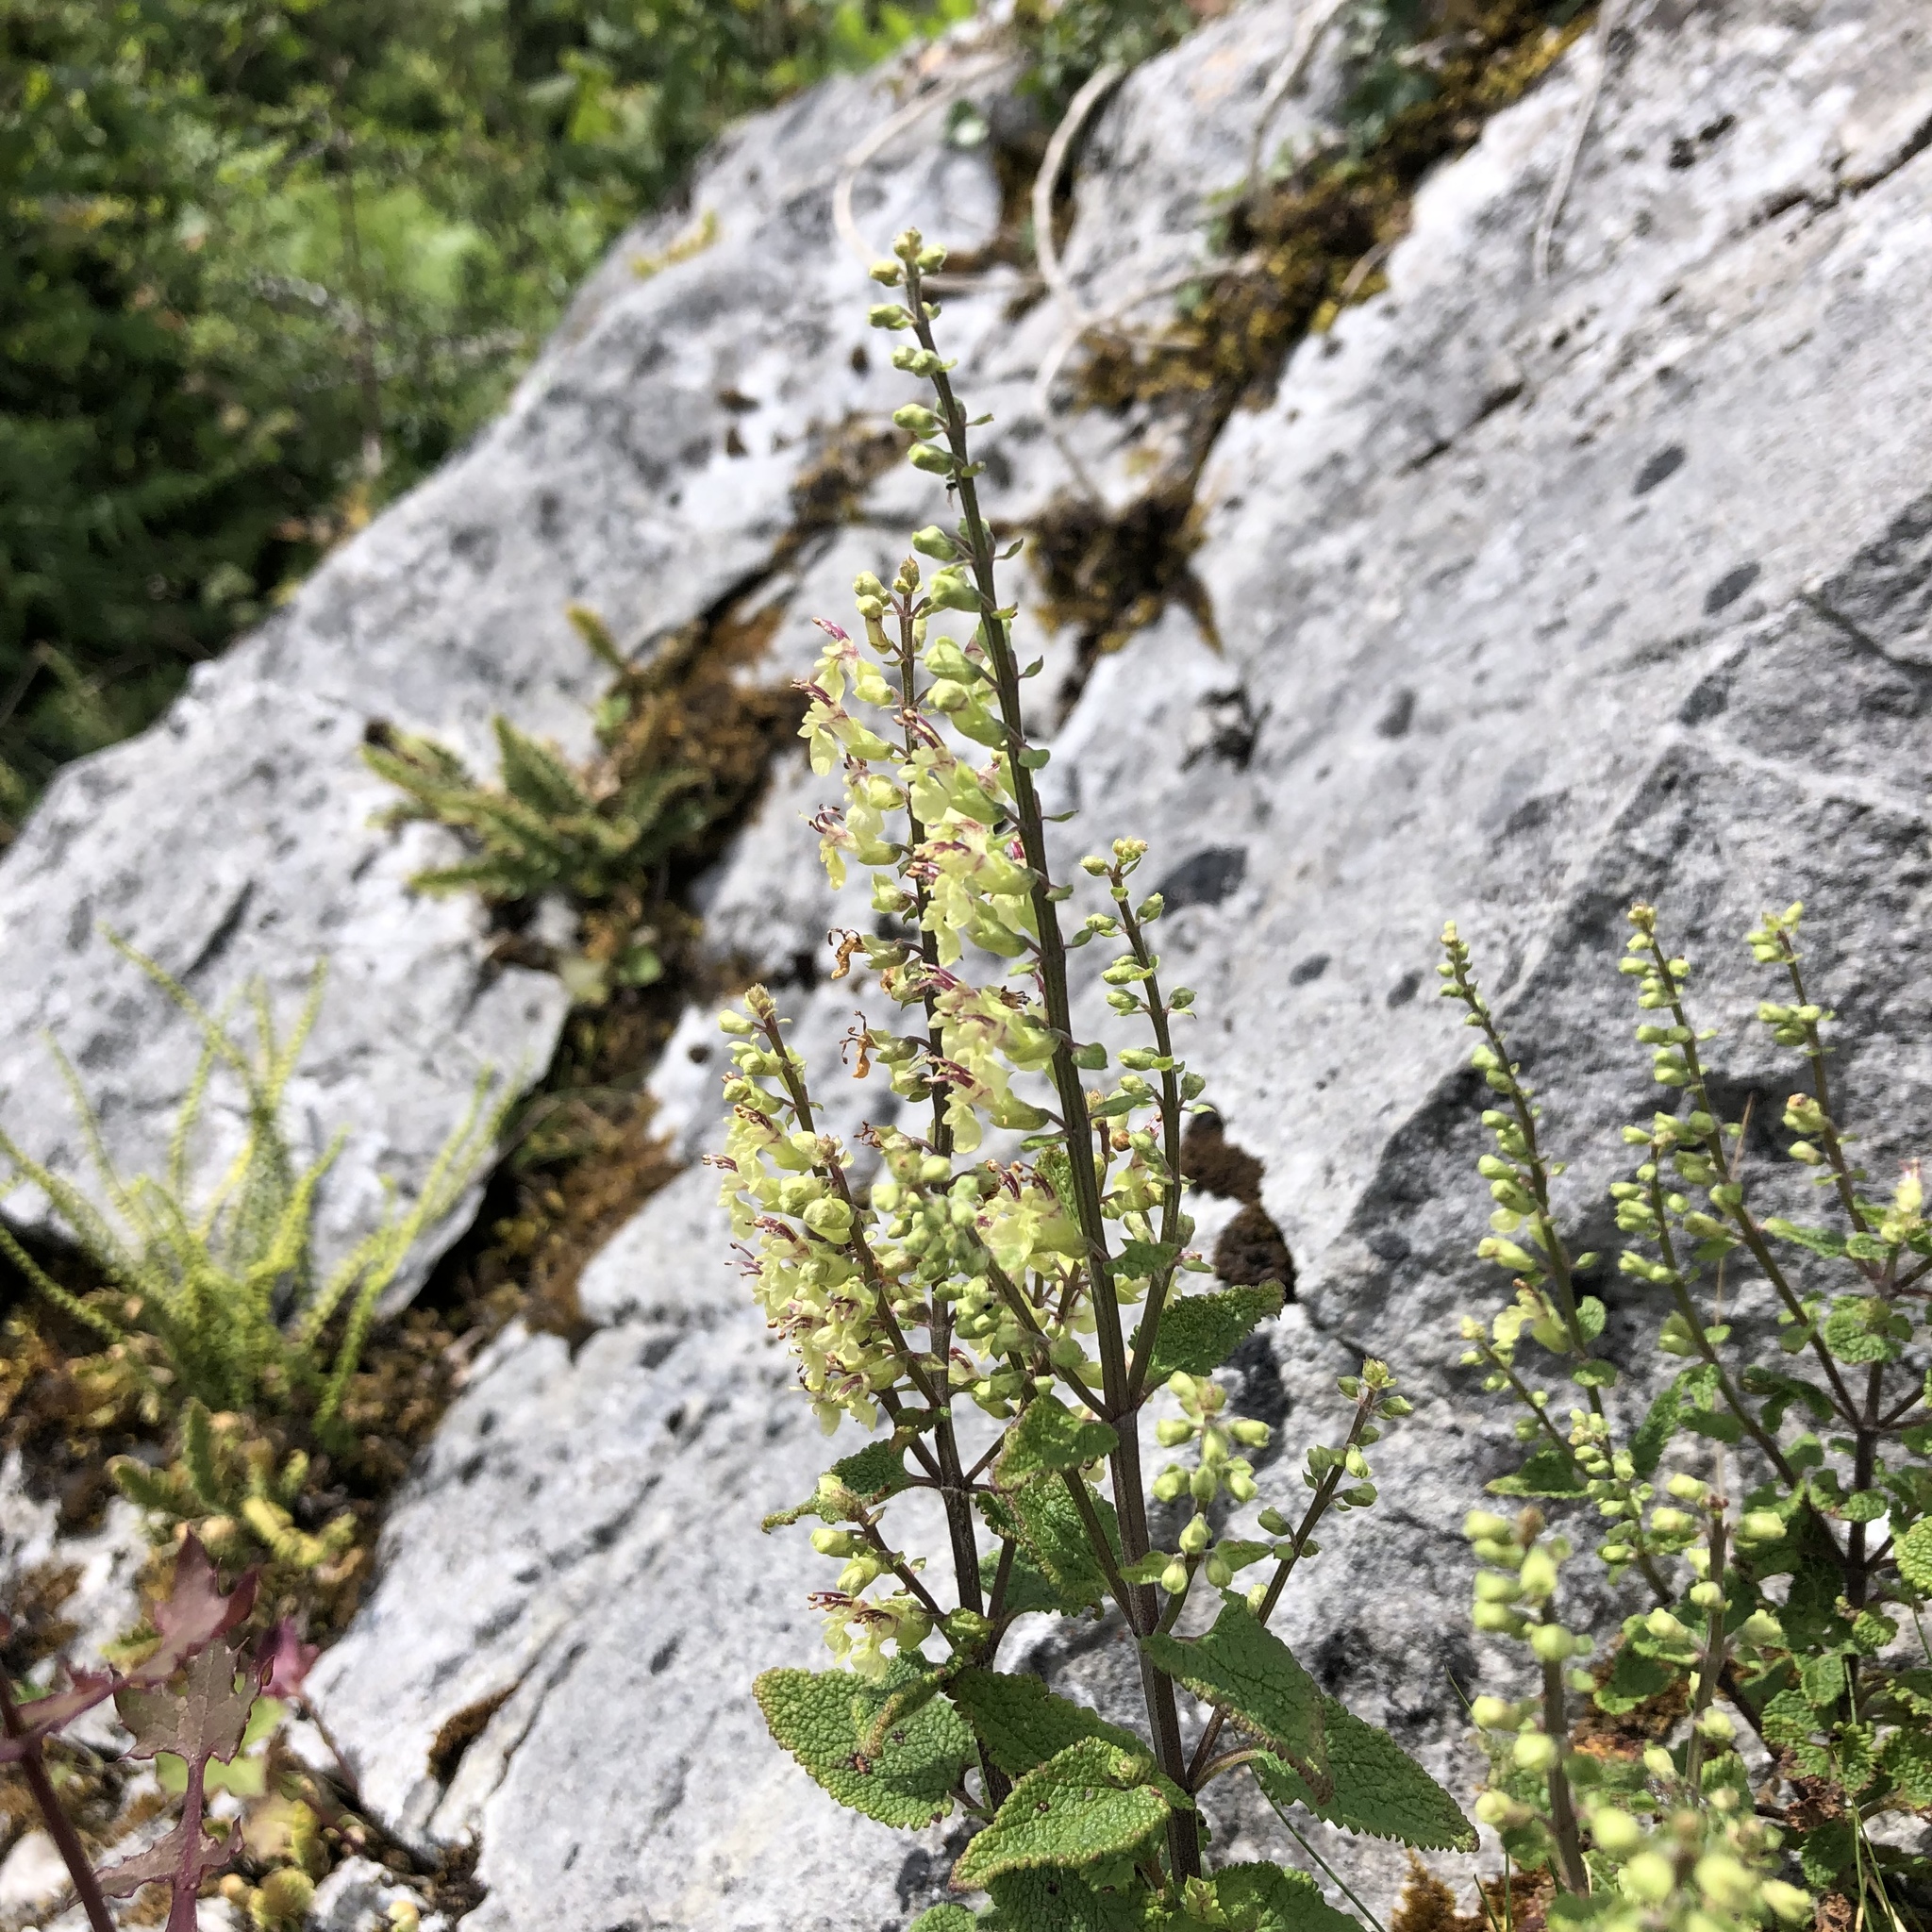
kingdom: Plantae
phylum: Tracheophyta
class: Magnoliopsida
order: Lamiales
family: Lamiaceae
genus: Teucrium
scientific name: Teucrium scorodonia
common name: Woodland germander
